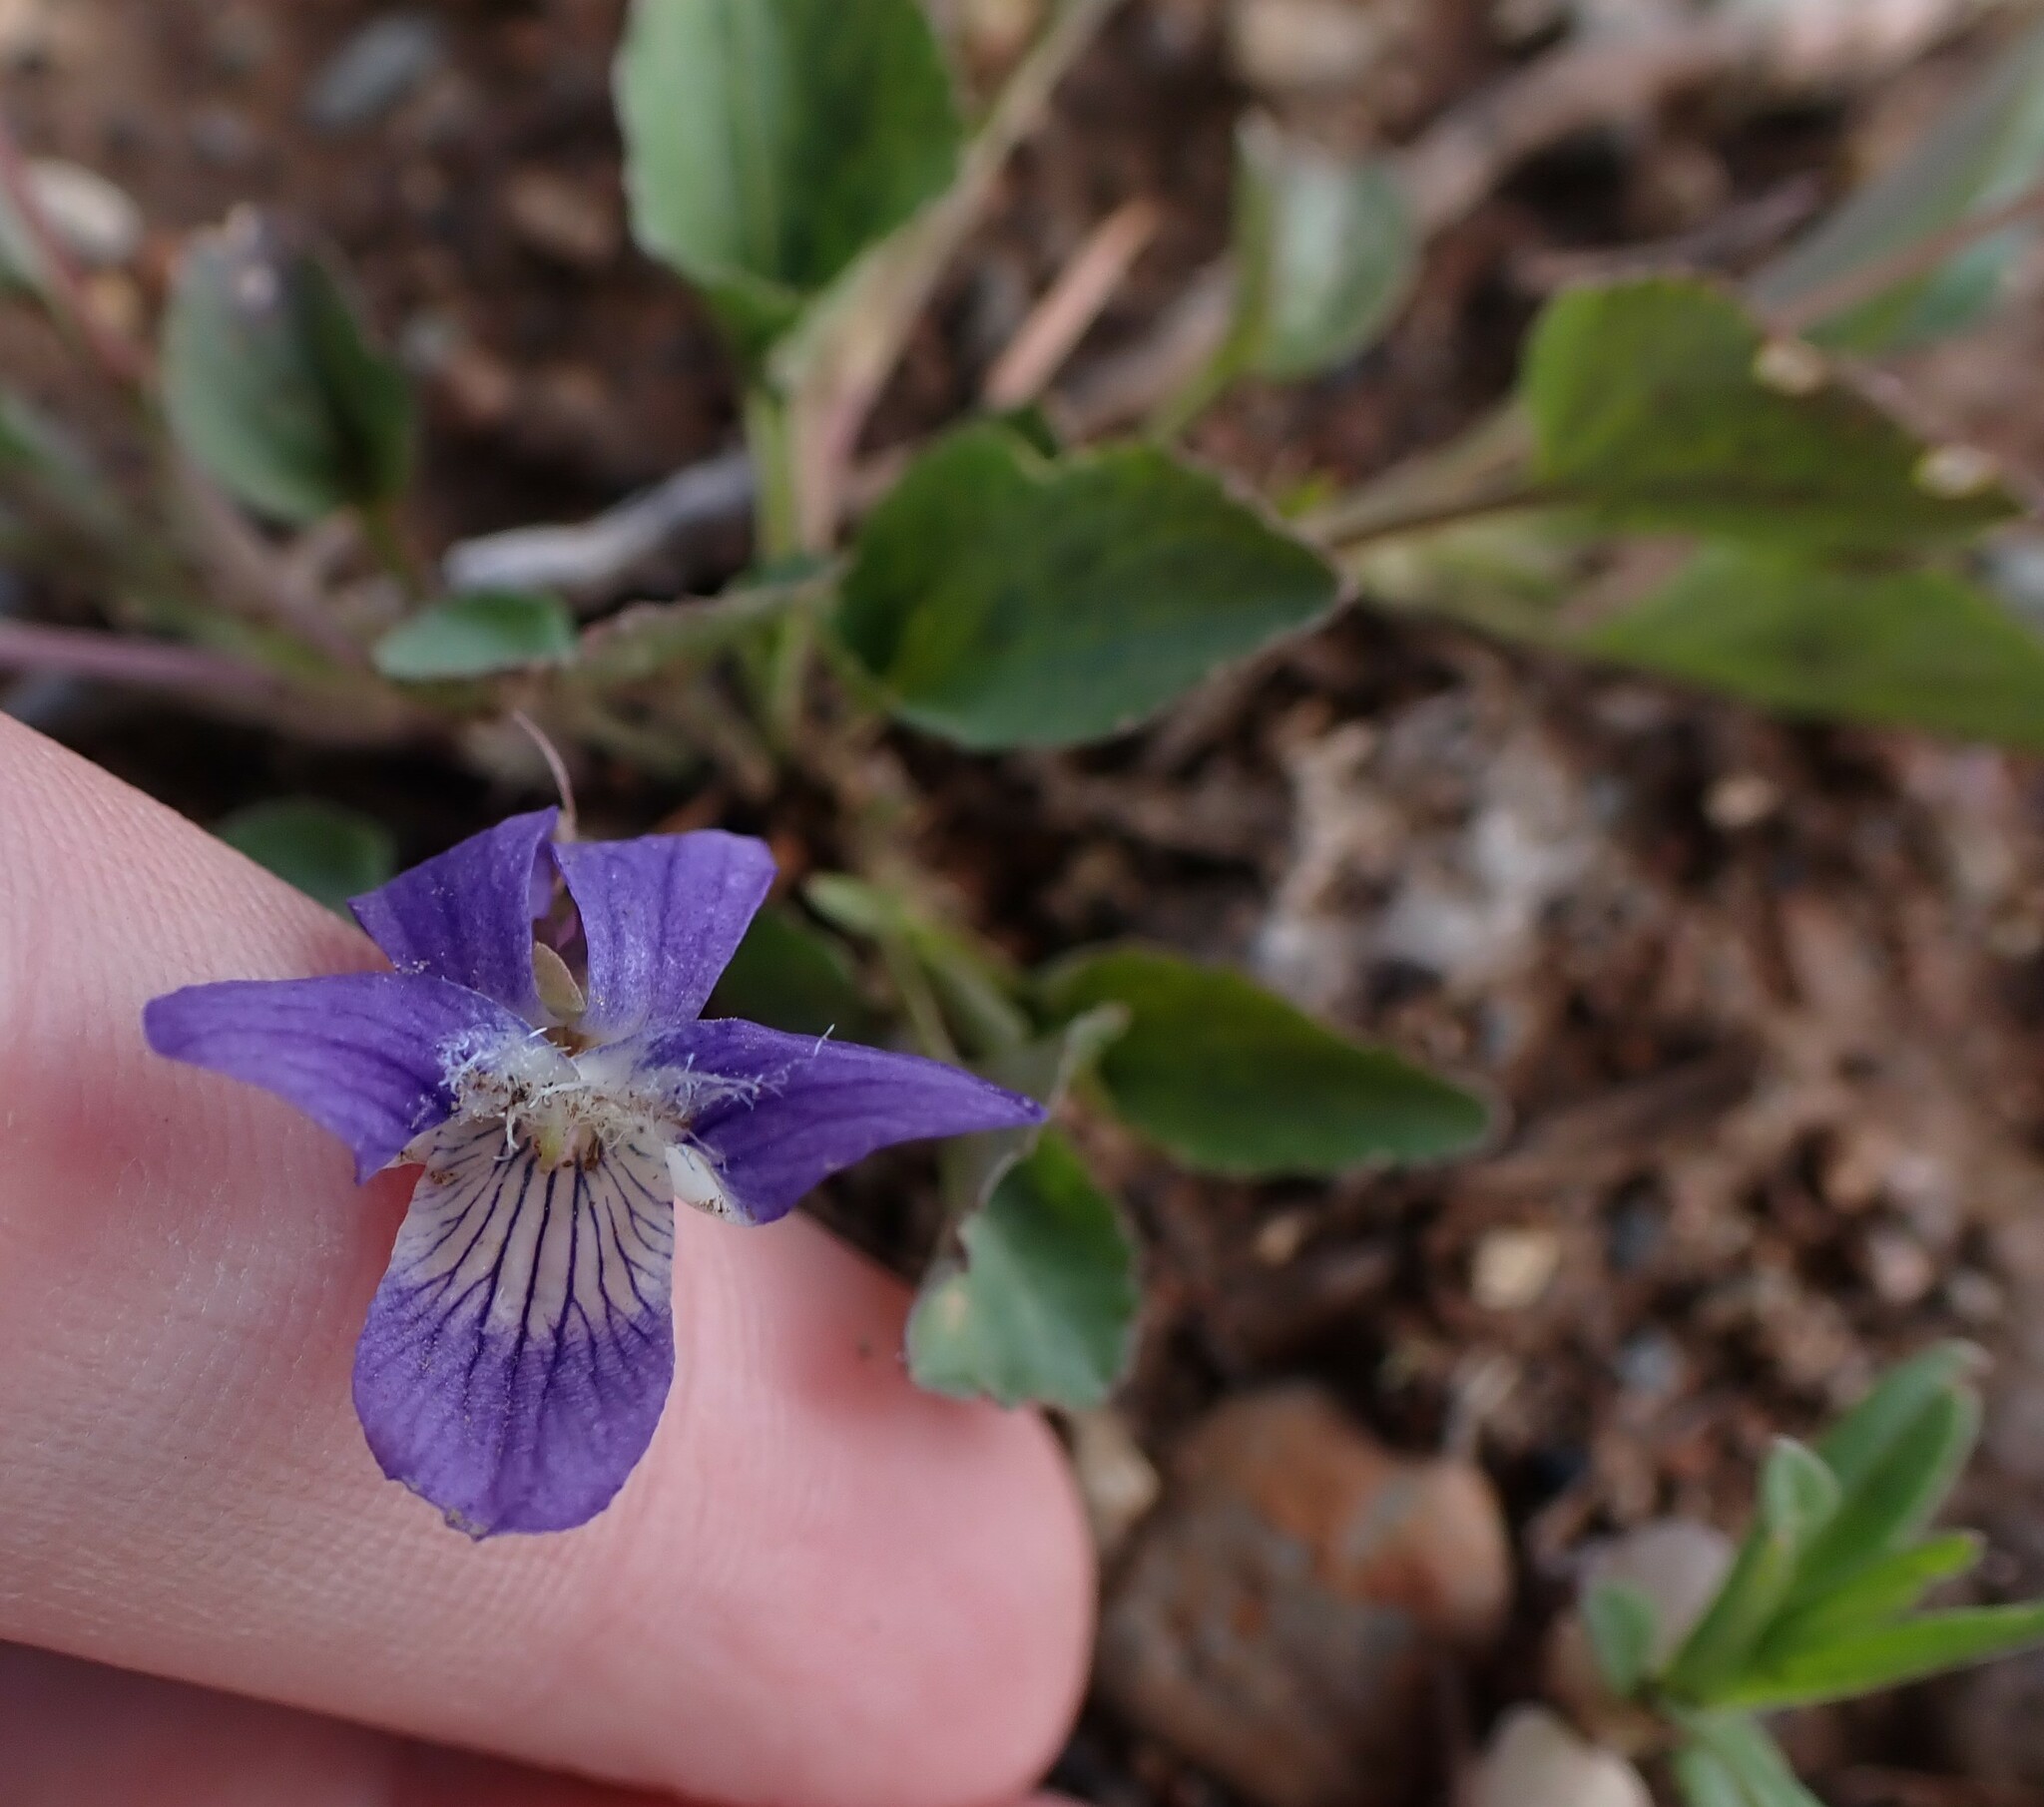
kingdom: Plantae
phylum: Tracheophyta
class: Magnoliopsida
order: Malpighiales
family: Violaceae
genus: Viola
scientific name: Viola adunca
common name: Sand violet
